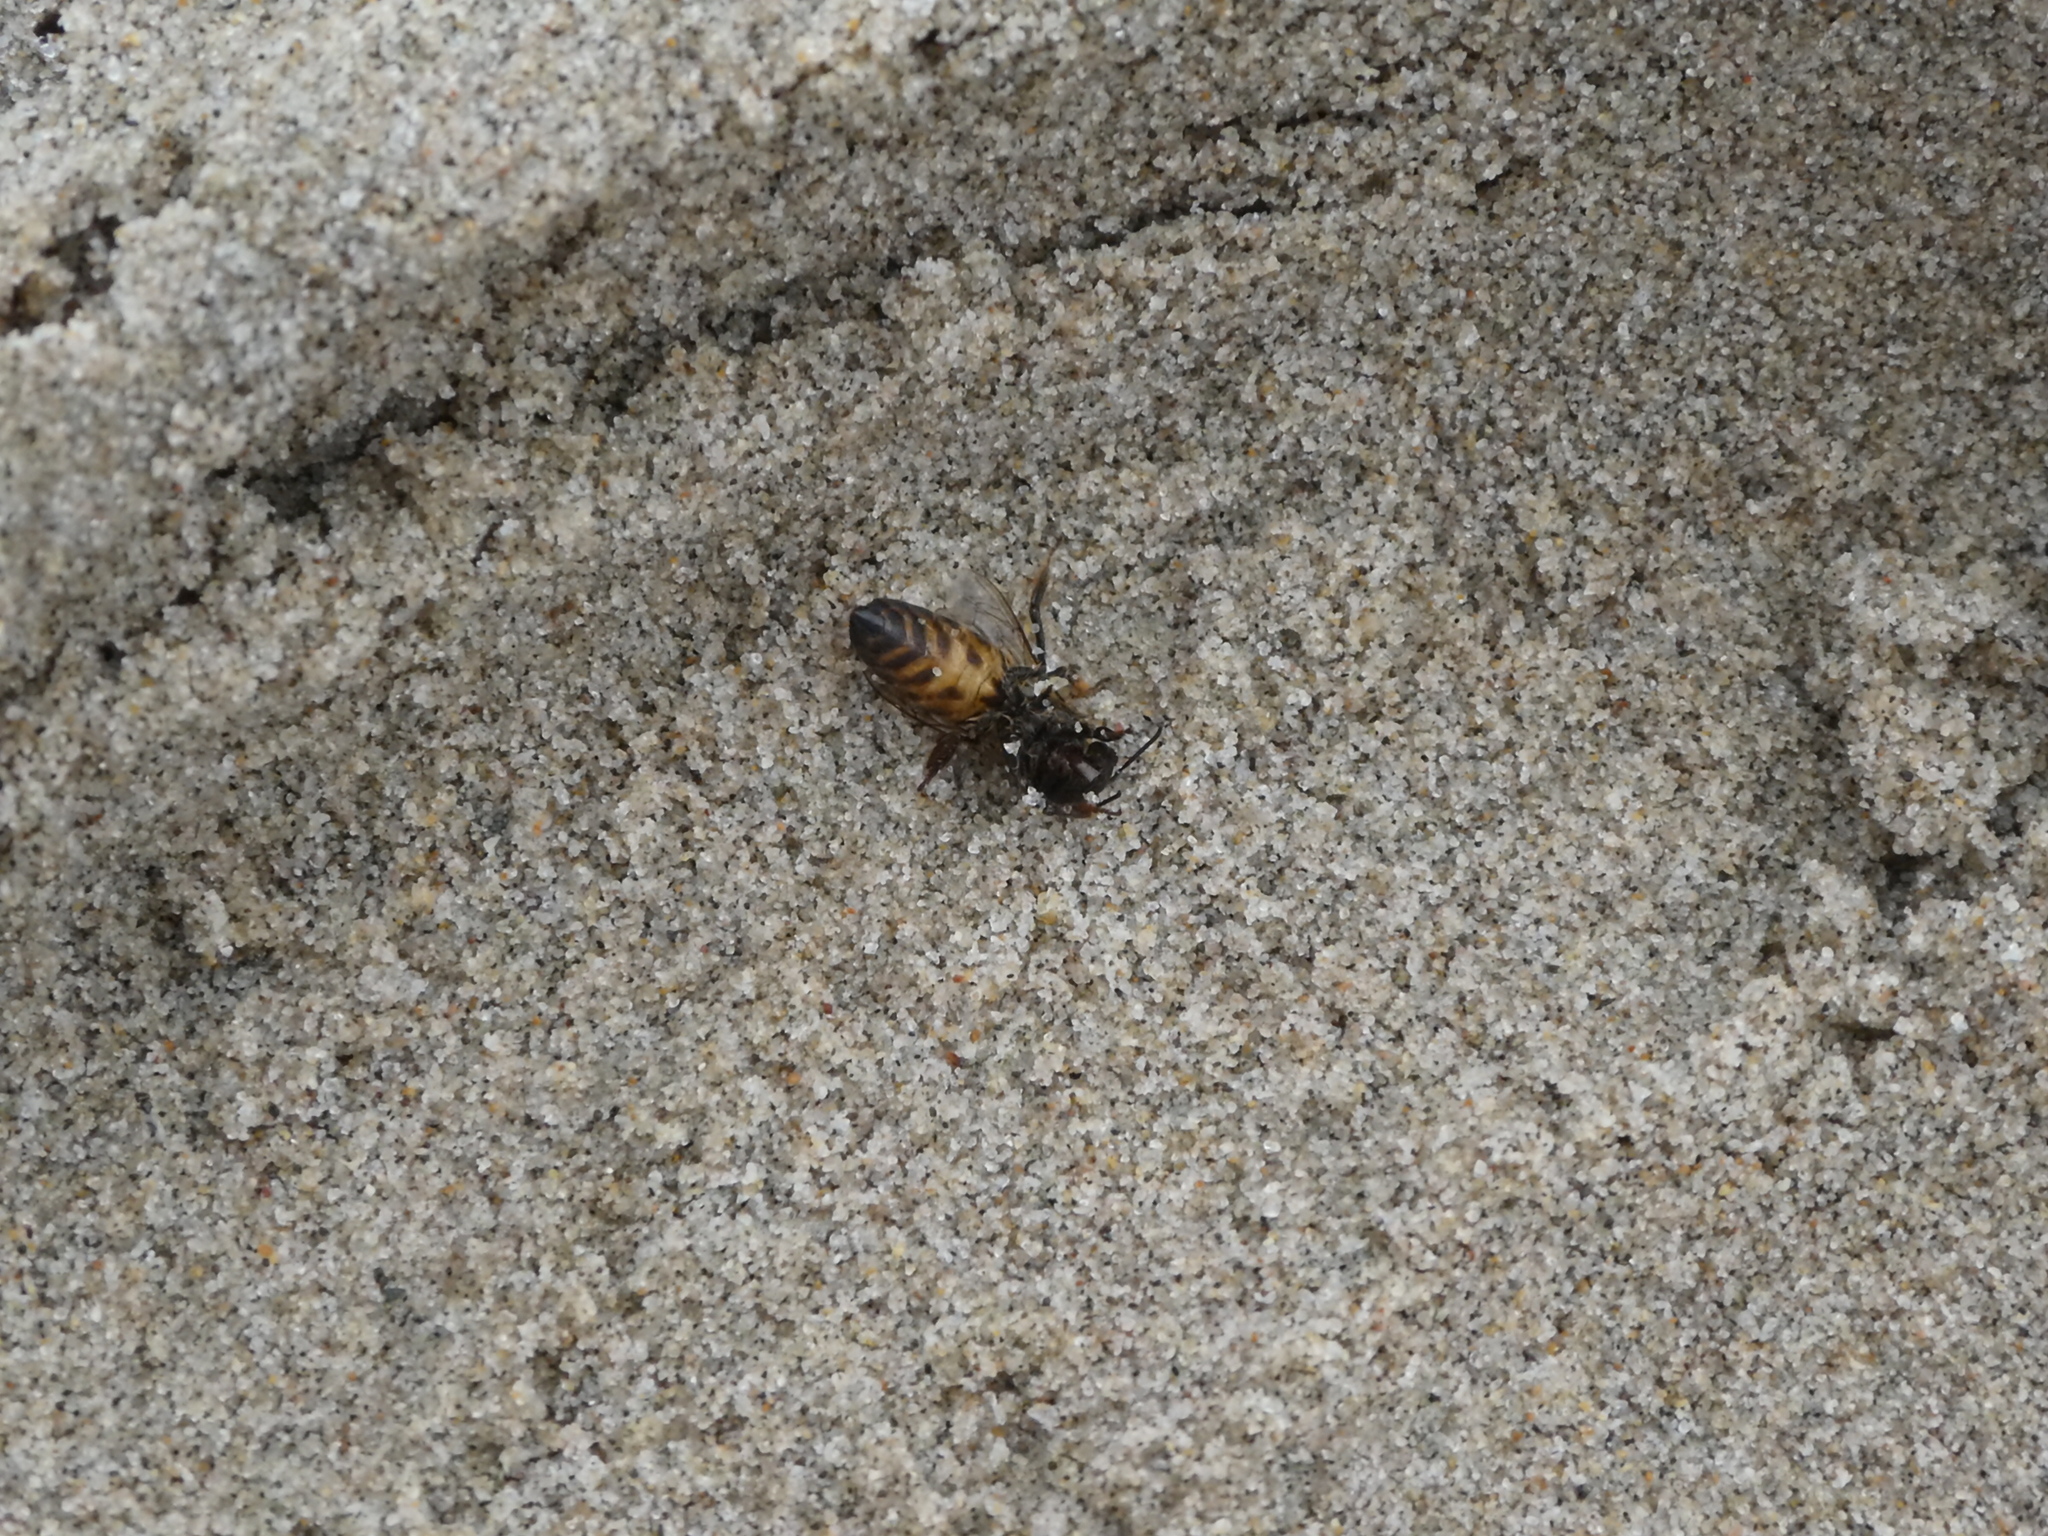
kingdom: Animalia
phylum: Arthropoda
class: Insecta
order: Hymenoptera
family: Apidae
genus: Apis
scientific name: Apis mellifera
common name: Honey bee
